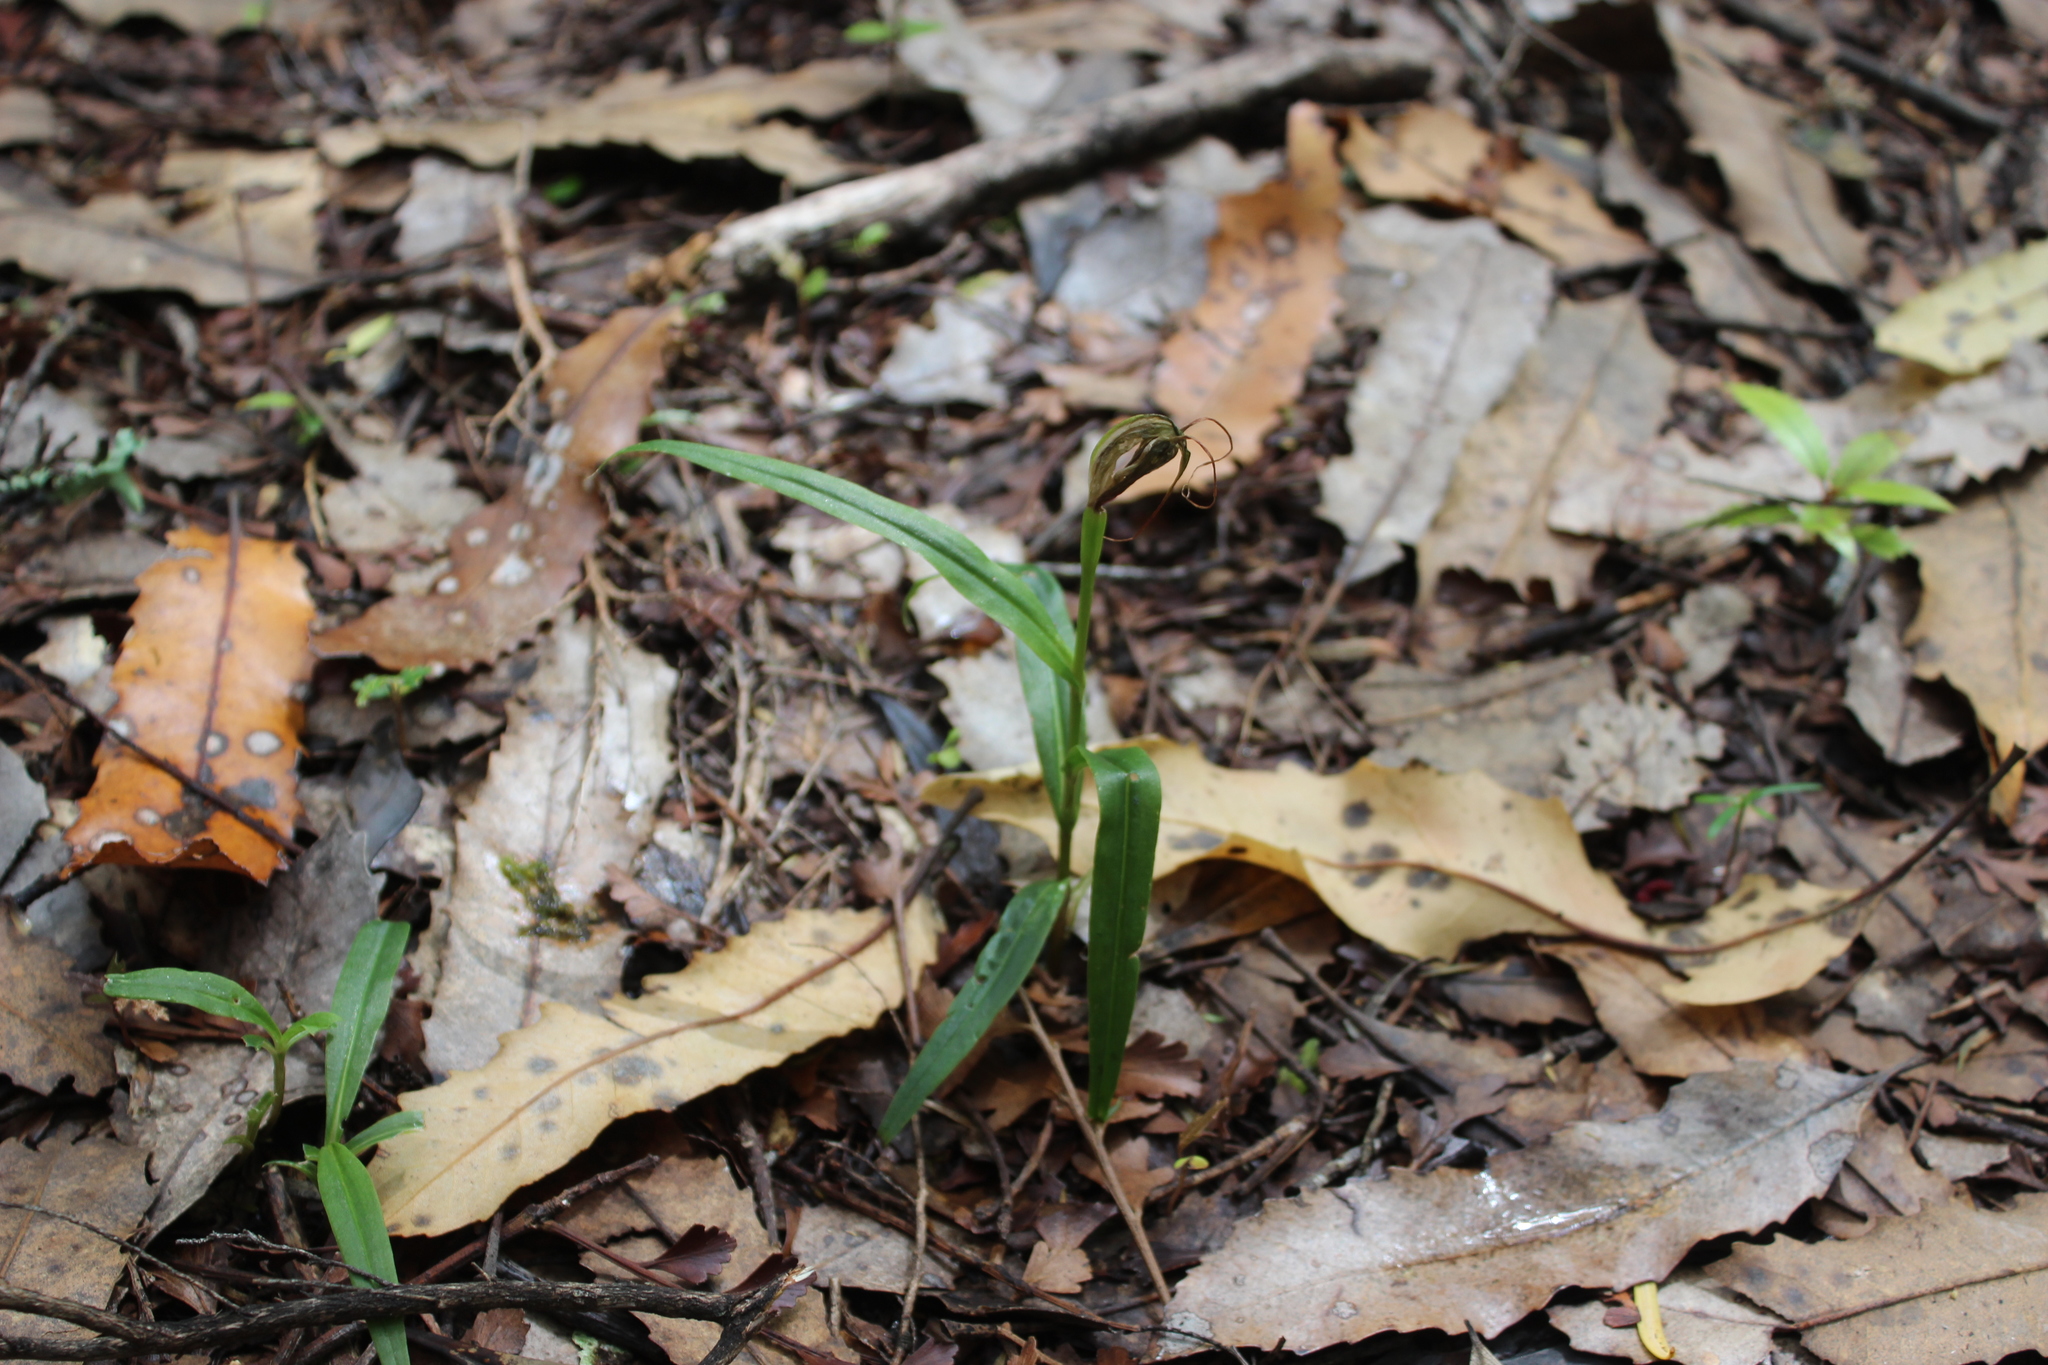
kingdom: Plantae
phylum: Tracheophyta
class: Liliopsida
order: Asparagales
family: Orchidaceae
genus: Pterostylis
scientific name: Pterostylis banksii
